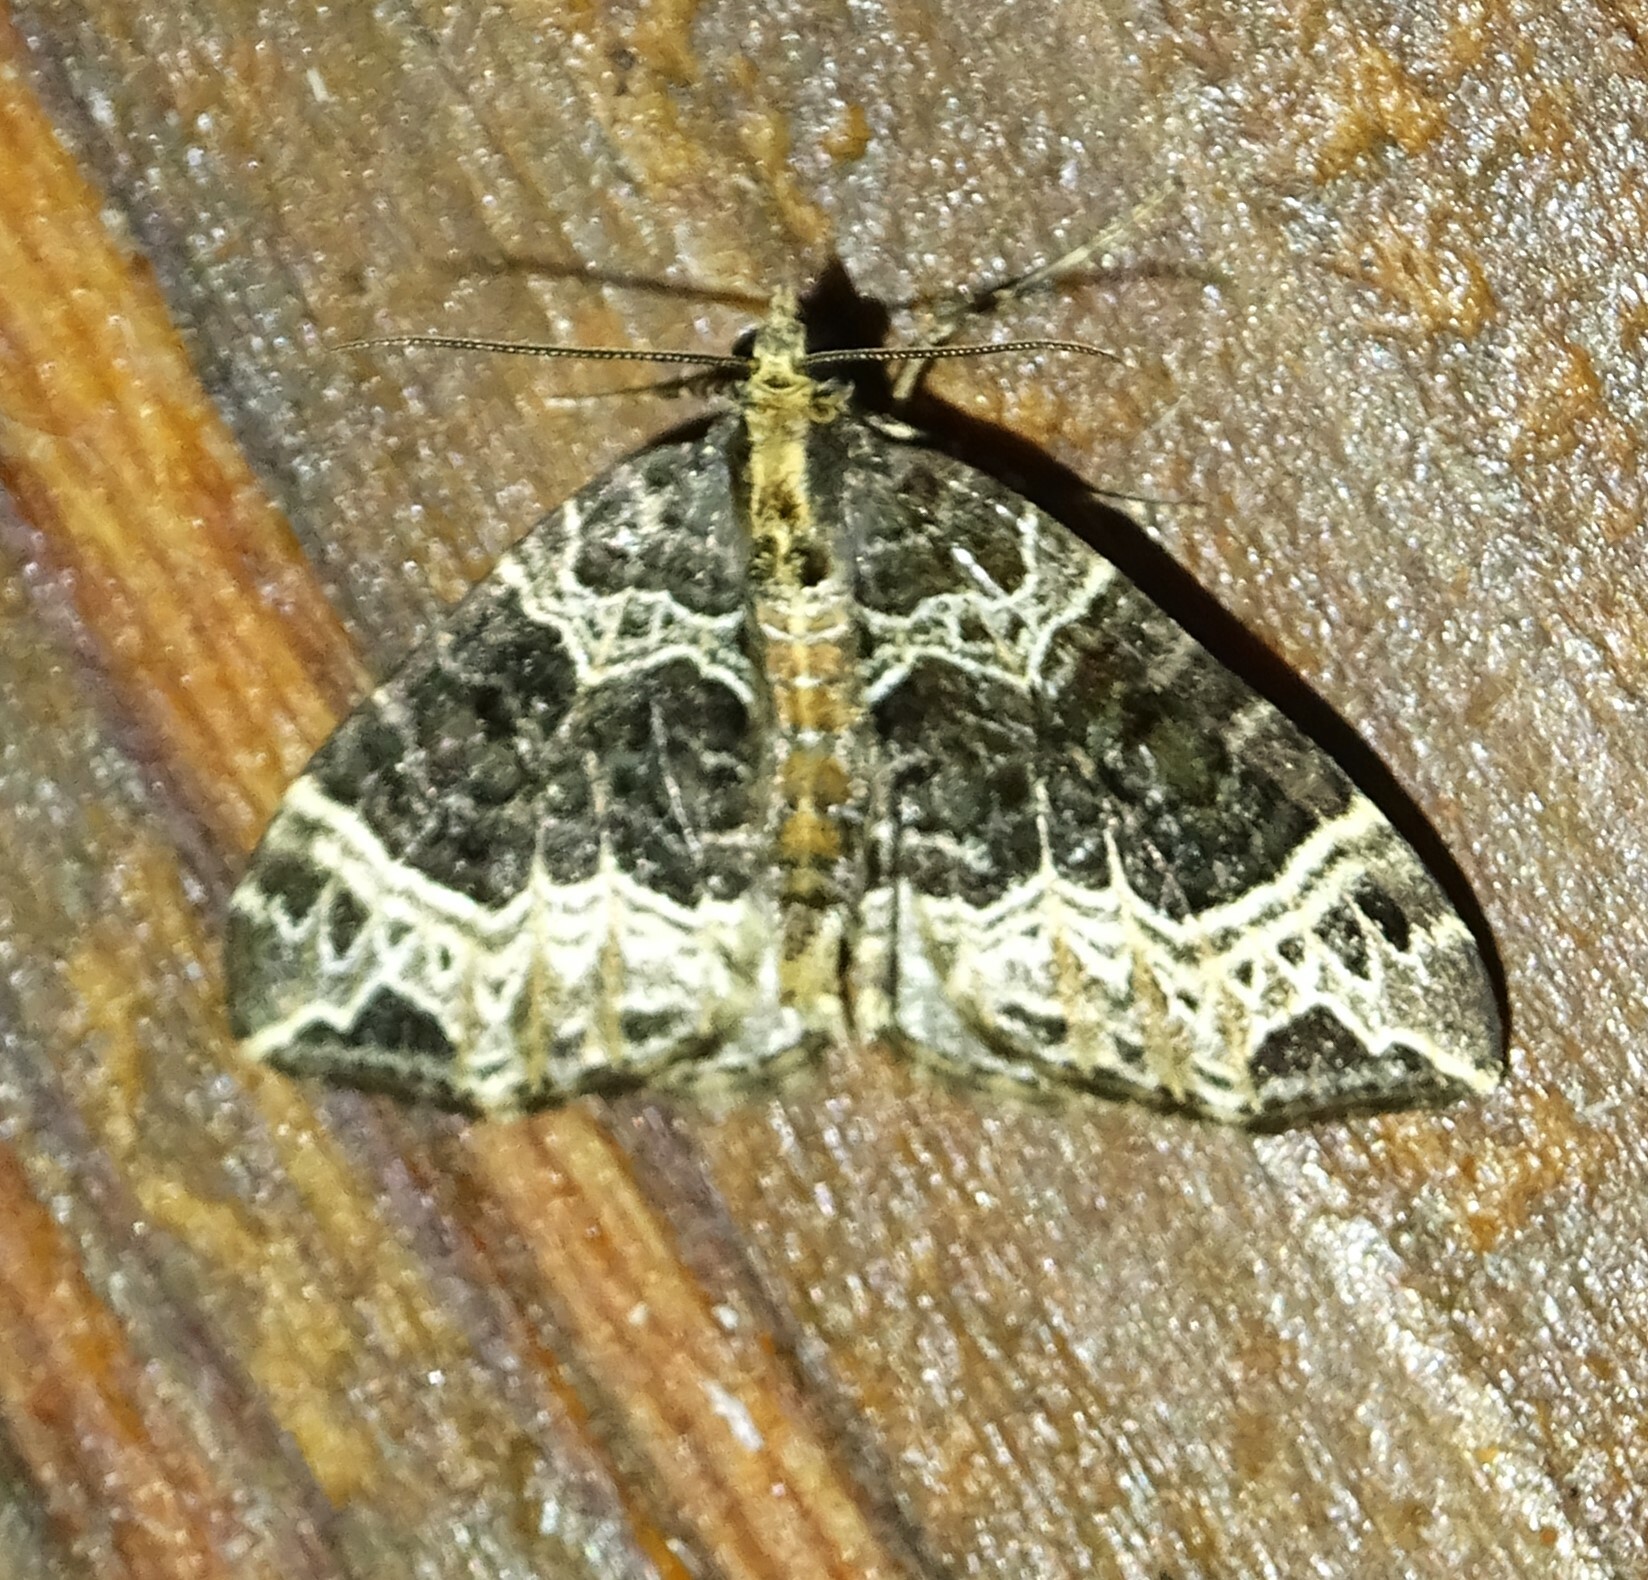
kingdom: Animalia
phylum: Arthropoda
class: Insecta
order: Lepidoptera
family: Geometridae
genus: Ecliptopera
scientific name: Ecliptopera silaceata
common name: Small phoenix
